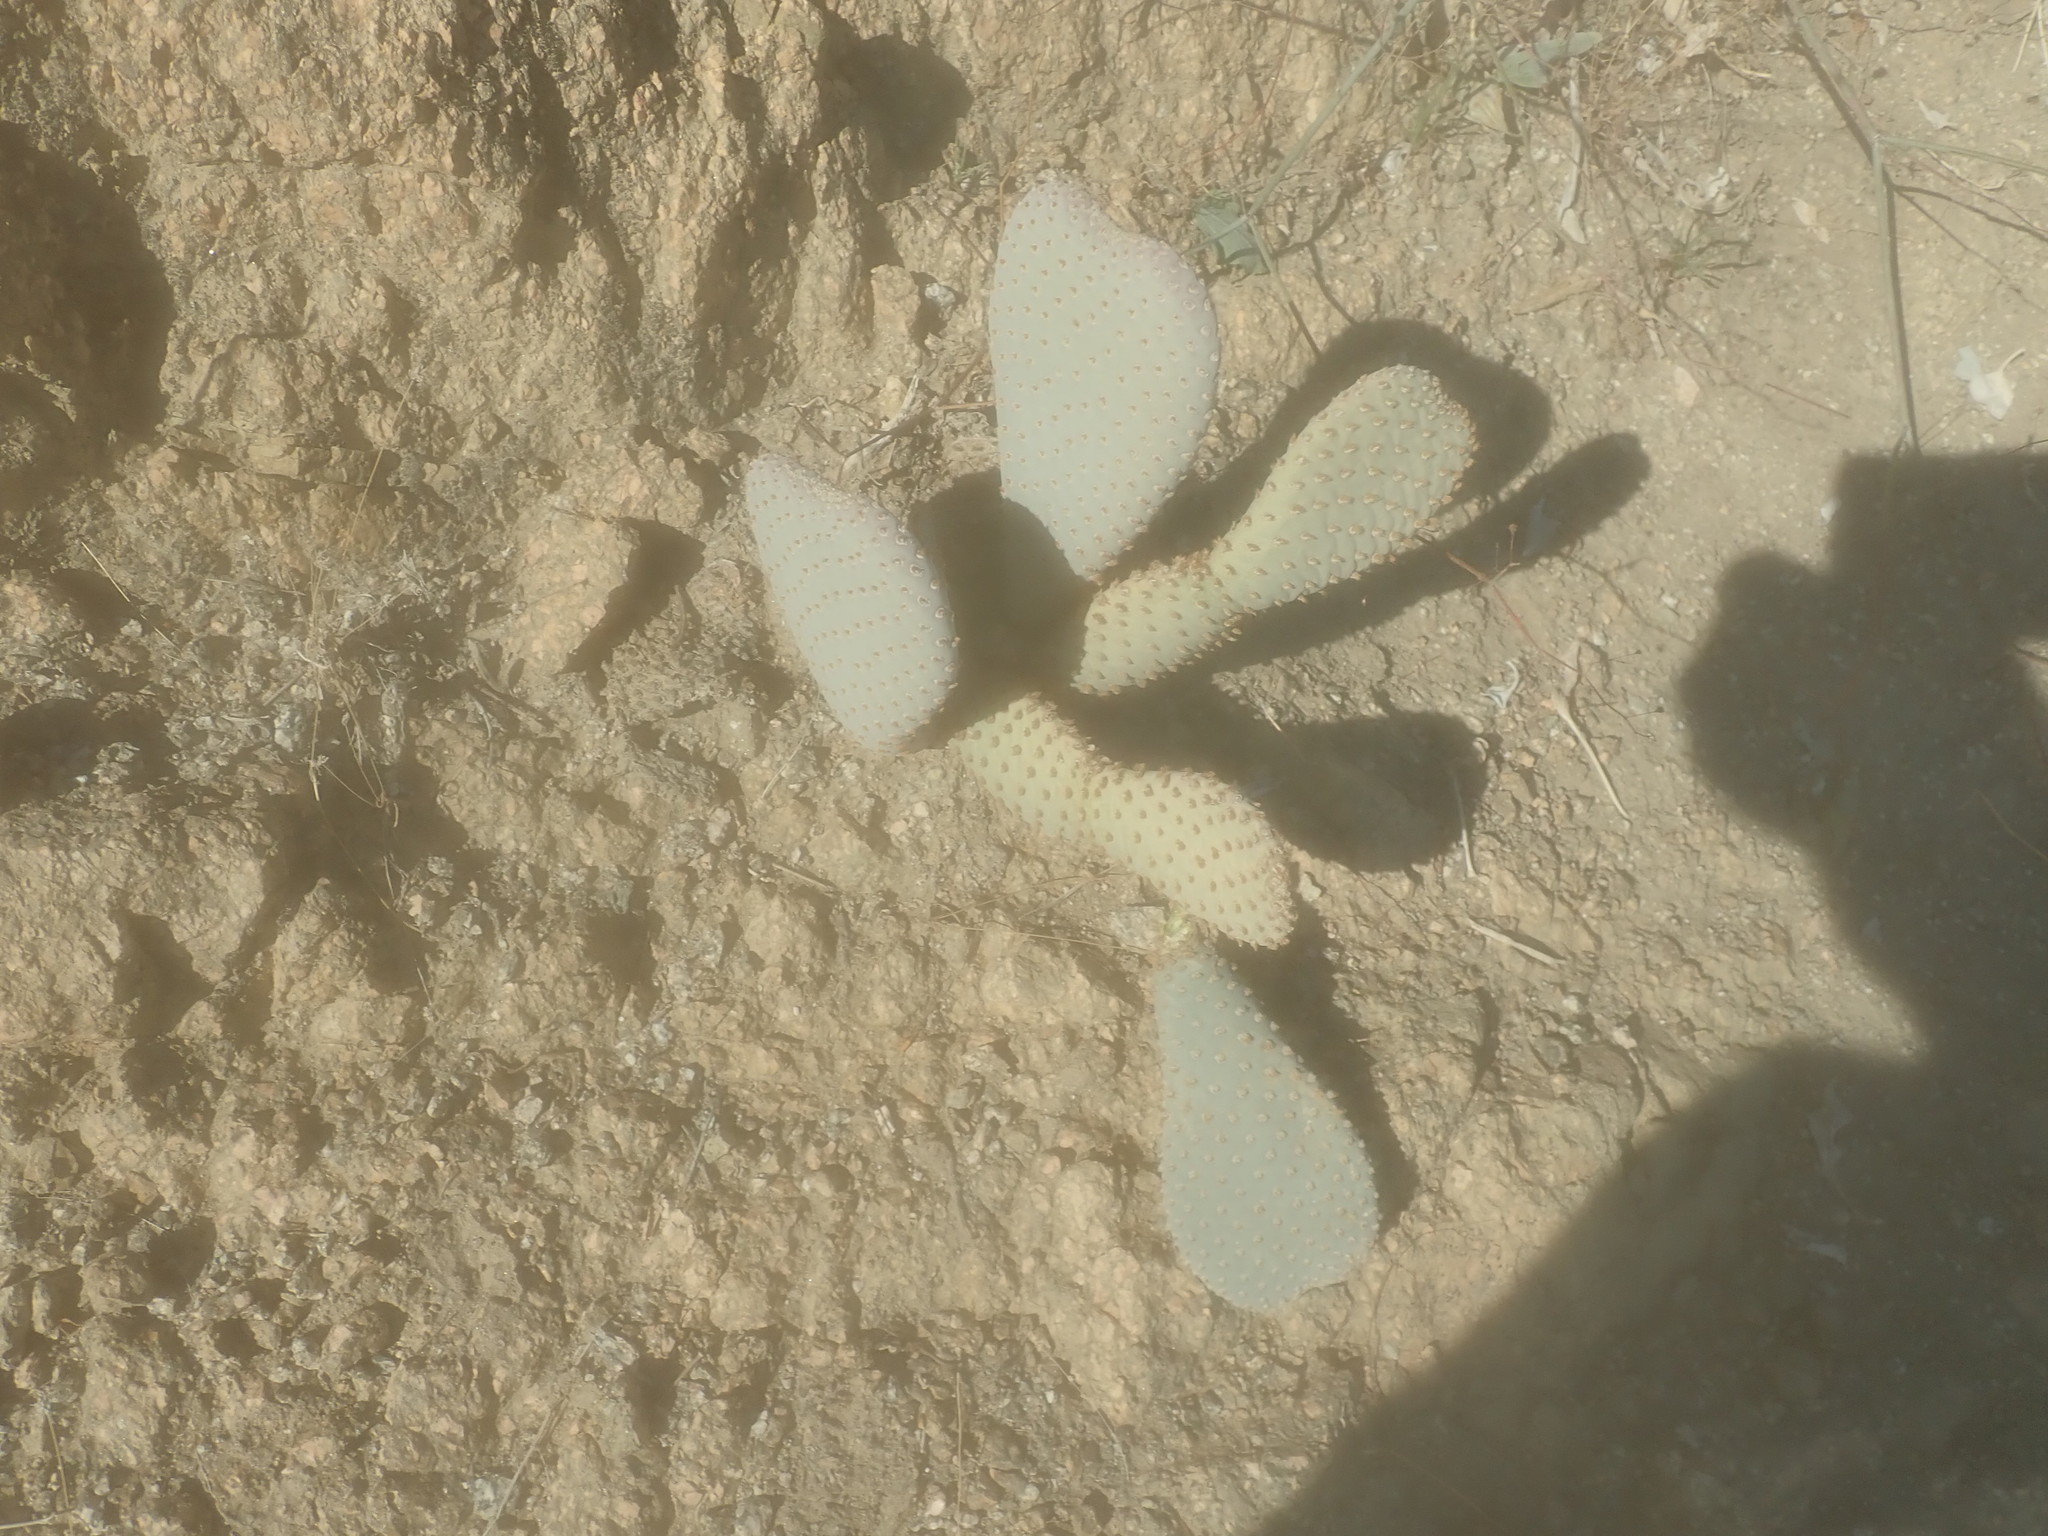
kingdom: Plantae
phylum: Tracheophyta
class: Magnoliopsida
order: Caryophyllales
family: Cactaceae
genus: Opuntia
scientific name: Opuntia basilaris
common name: Beavertail prickly-pear
